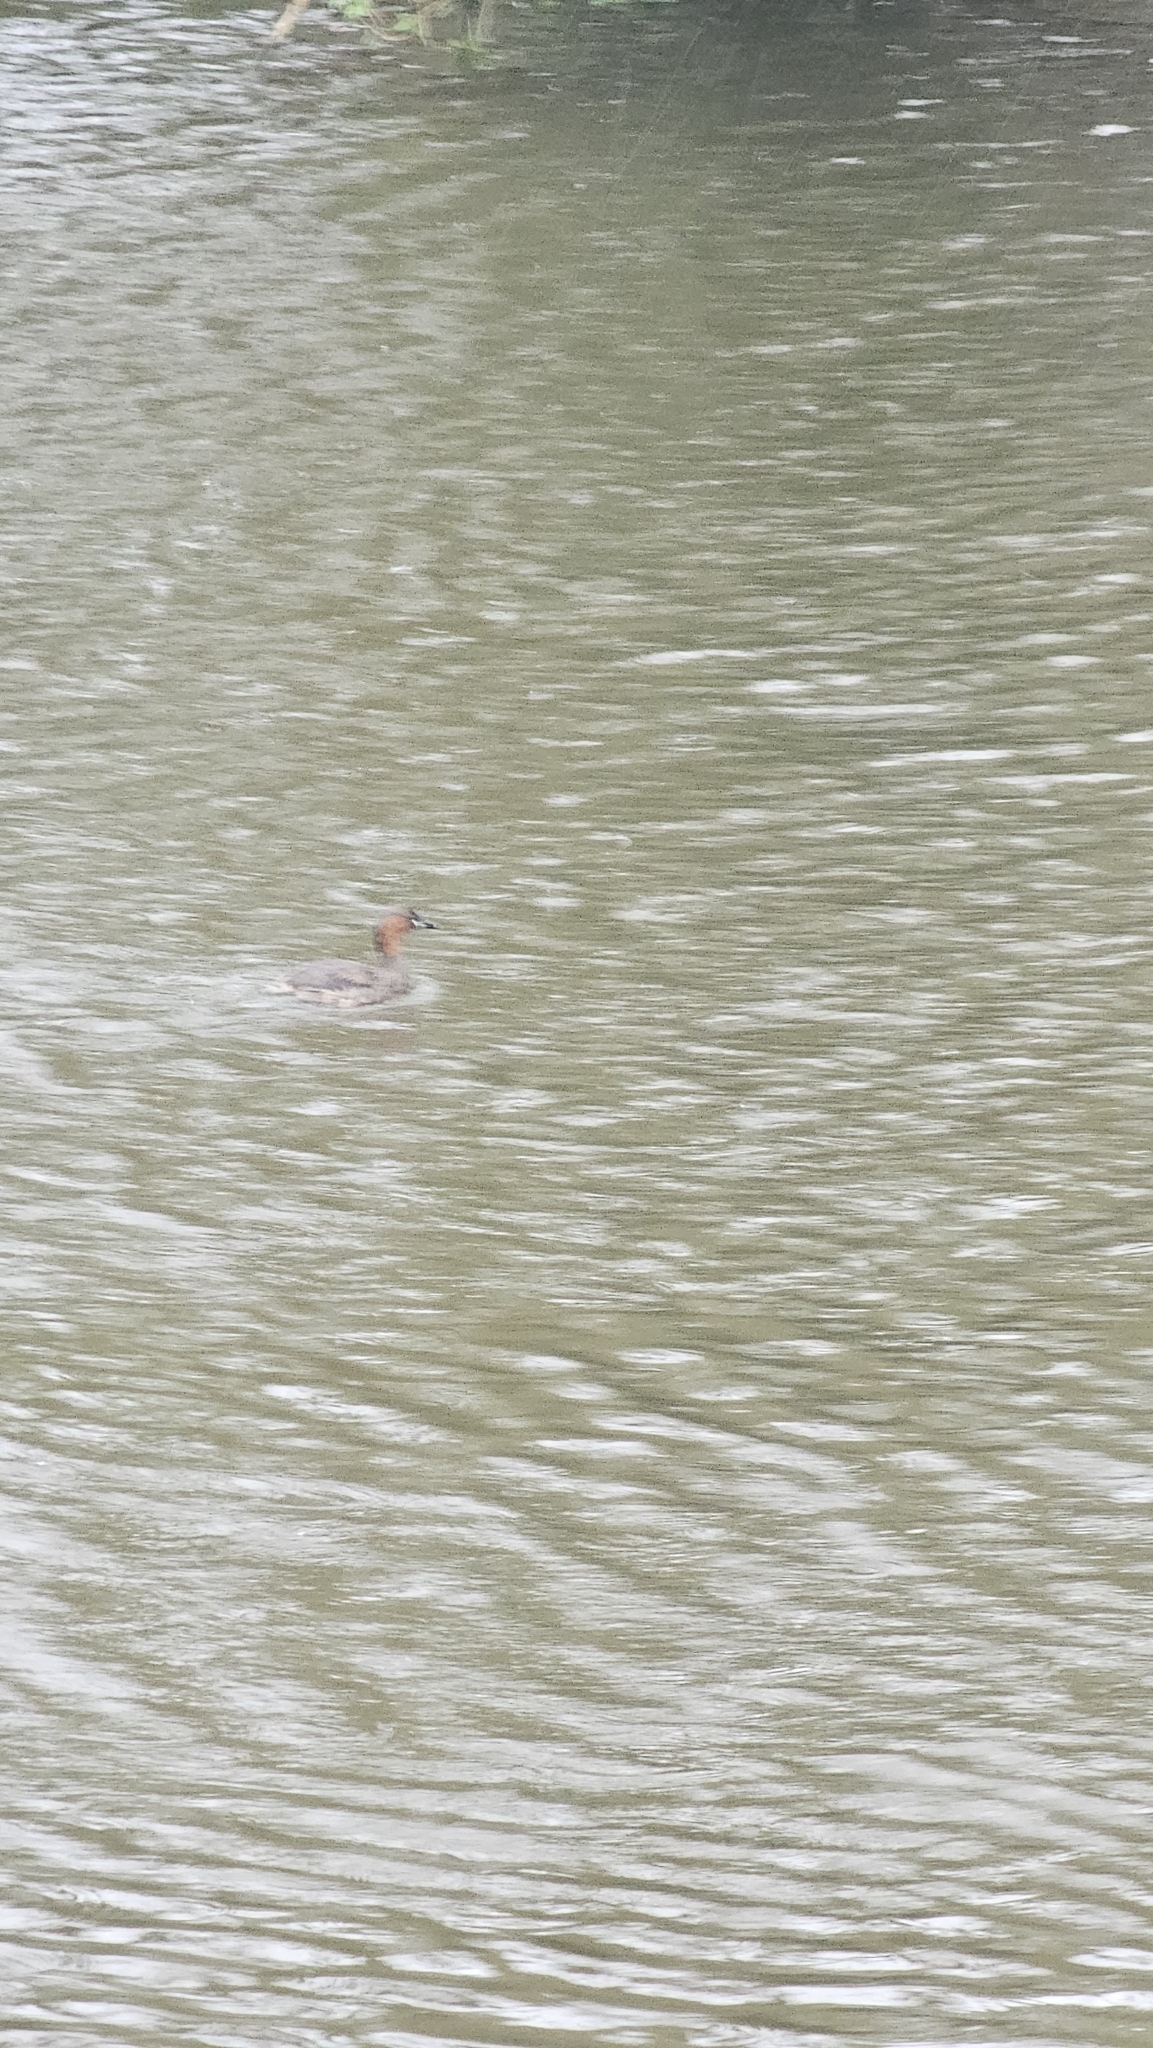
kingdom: Animalia
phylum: Chordata
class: Aves
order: Podicipediformes
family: Podicipedidae
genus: Tachybaptus
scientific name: Tachybaptus ruficollis
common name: Little grebe
